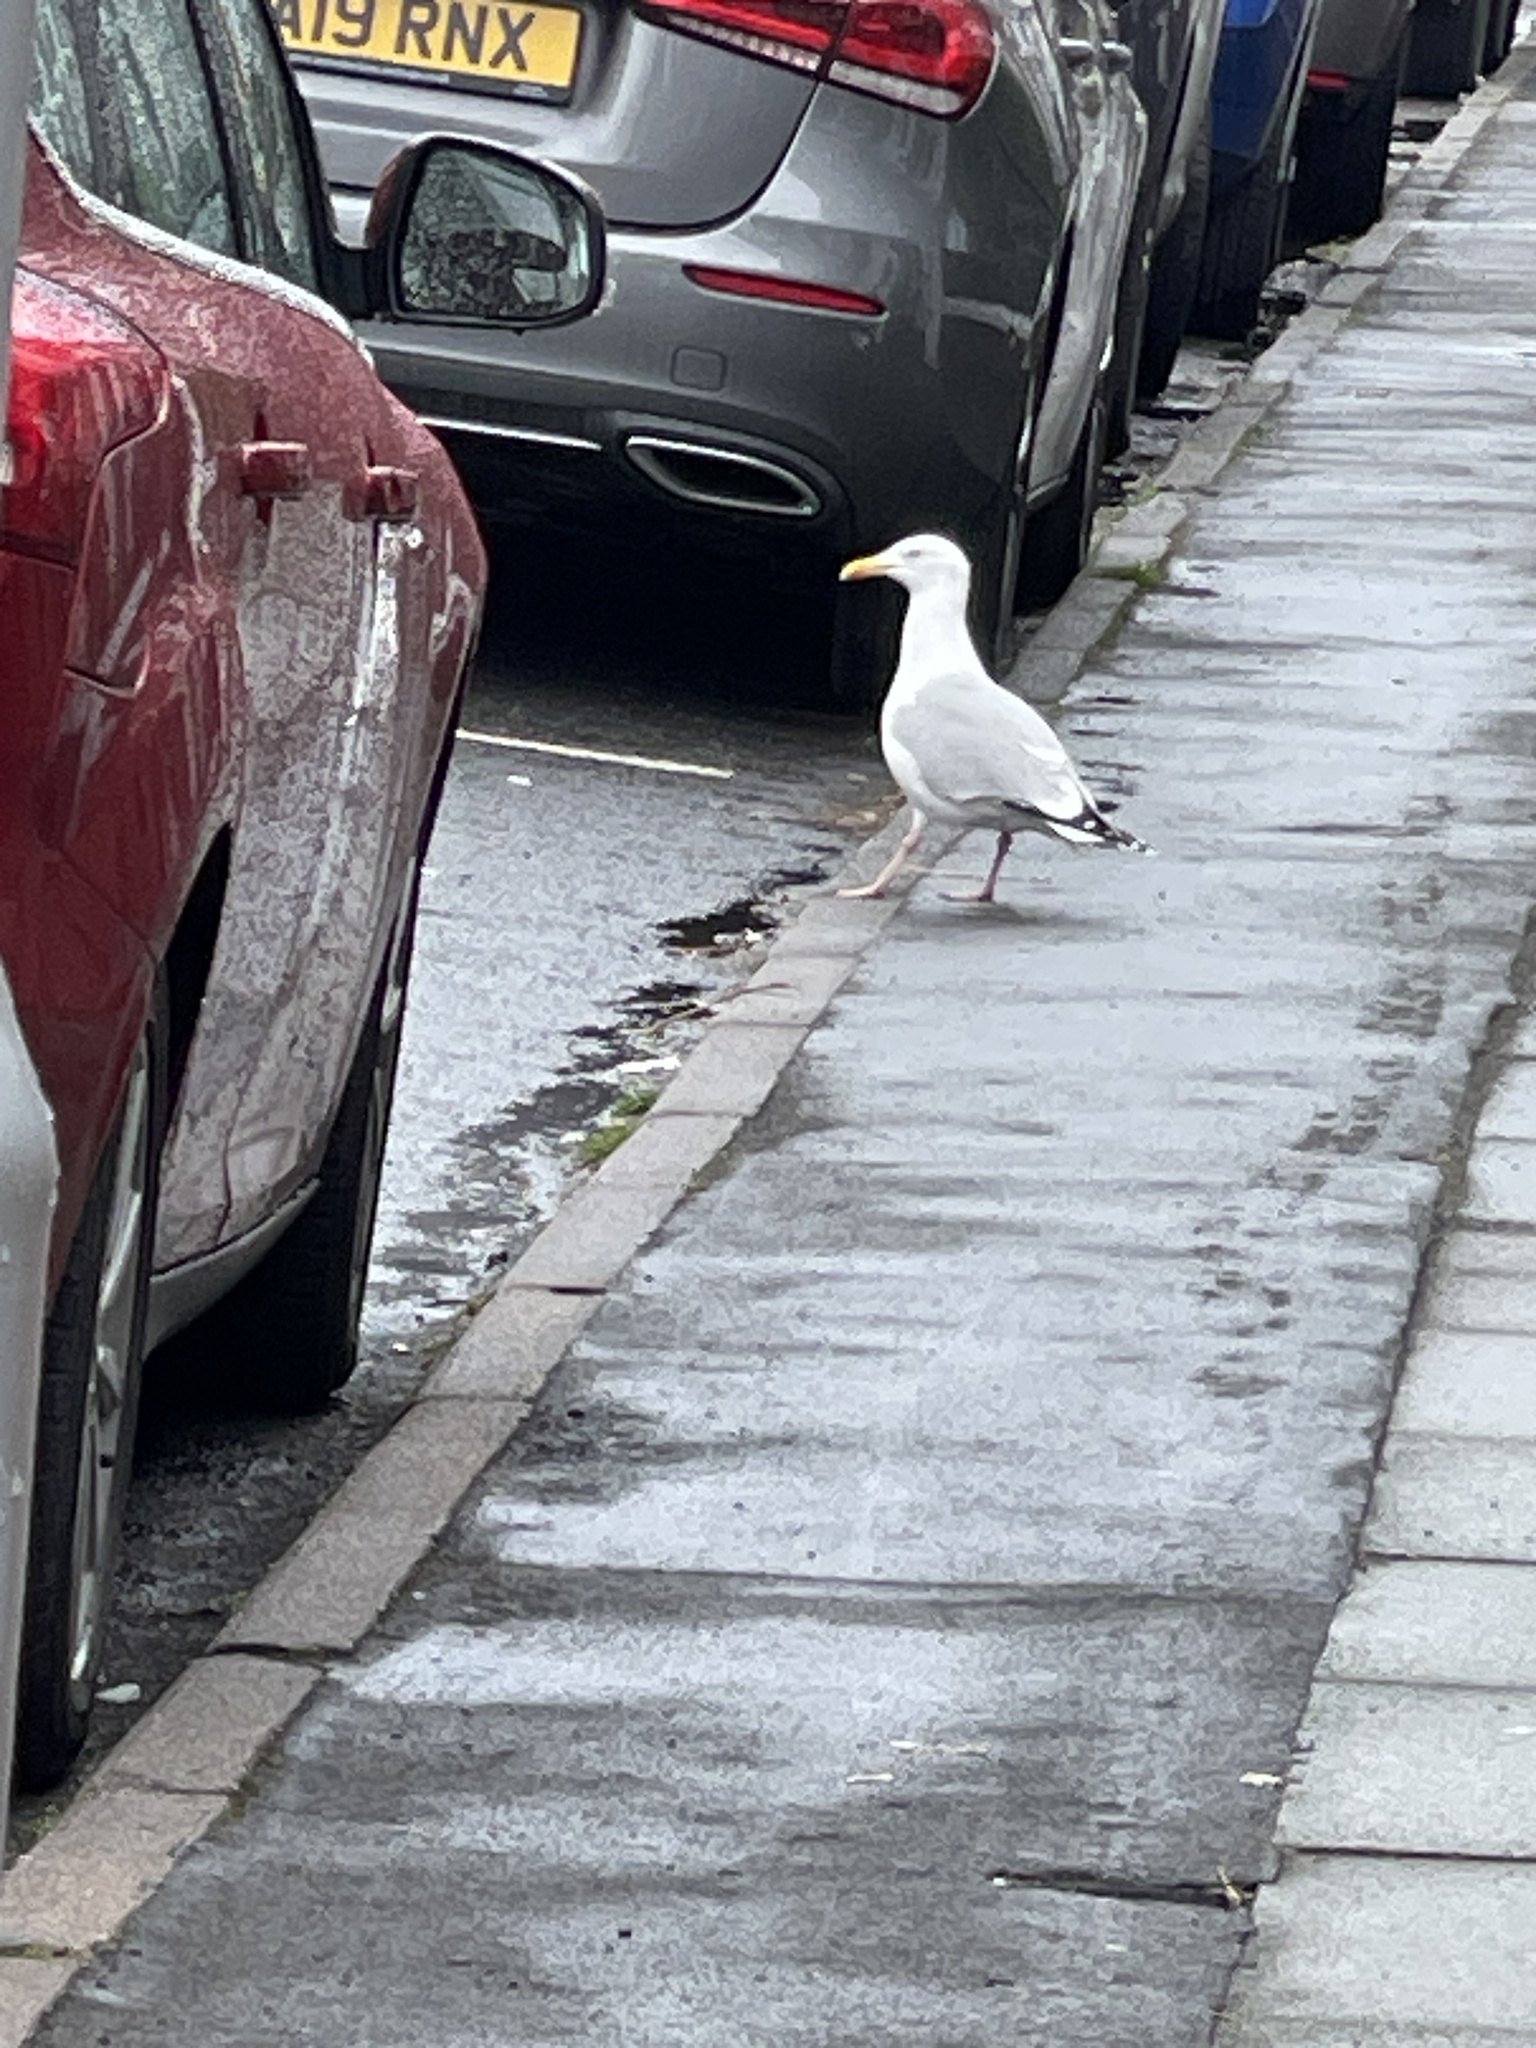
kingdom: Animalia
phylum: Chordata
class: Aves
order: Charadriiformes
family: Laridae
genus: Larus
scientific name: Larus argentatus
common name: Herring gull
